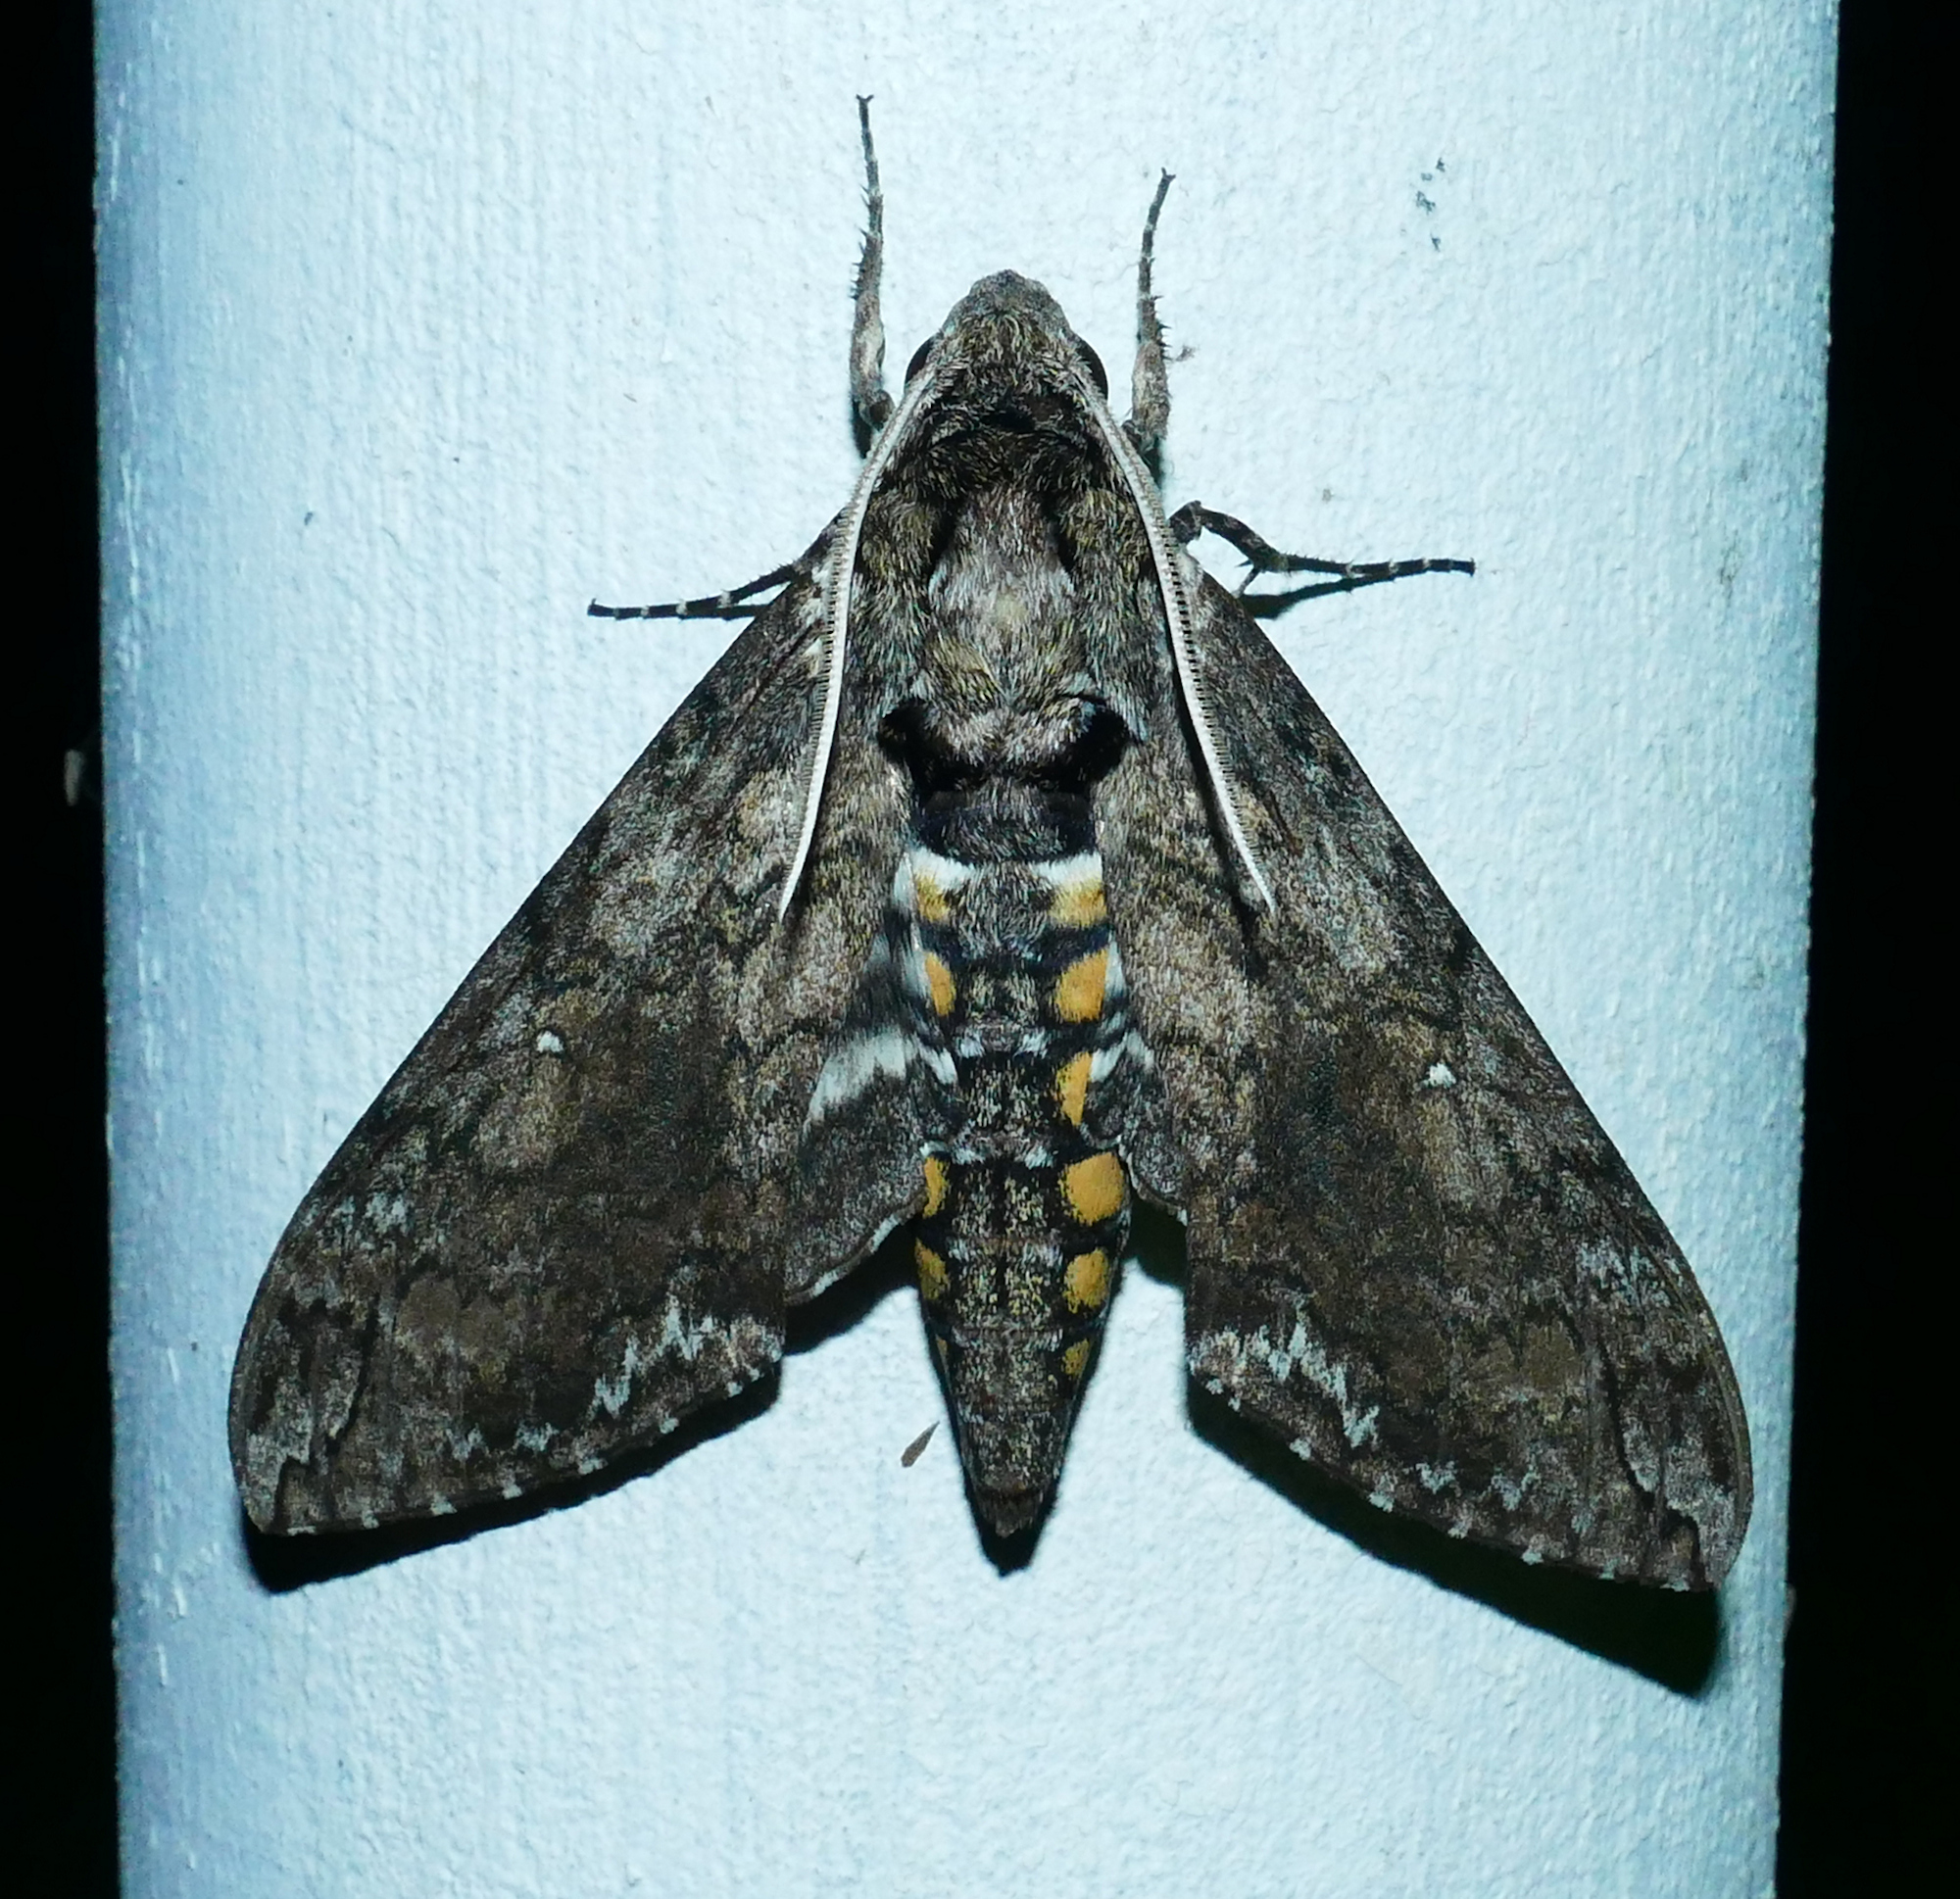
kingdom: Animalia
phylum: Arthropoda
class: Insecta
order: Lepidoptera
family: Sphingidae
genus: Manduca
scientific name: Manduca sexta
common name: Carolina sphinx
